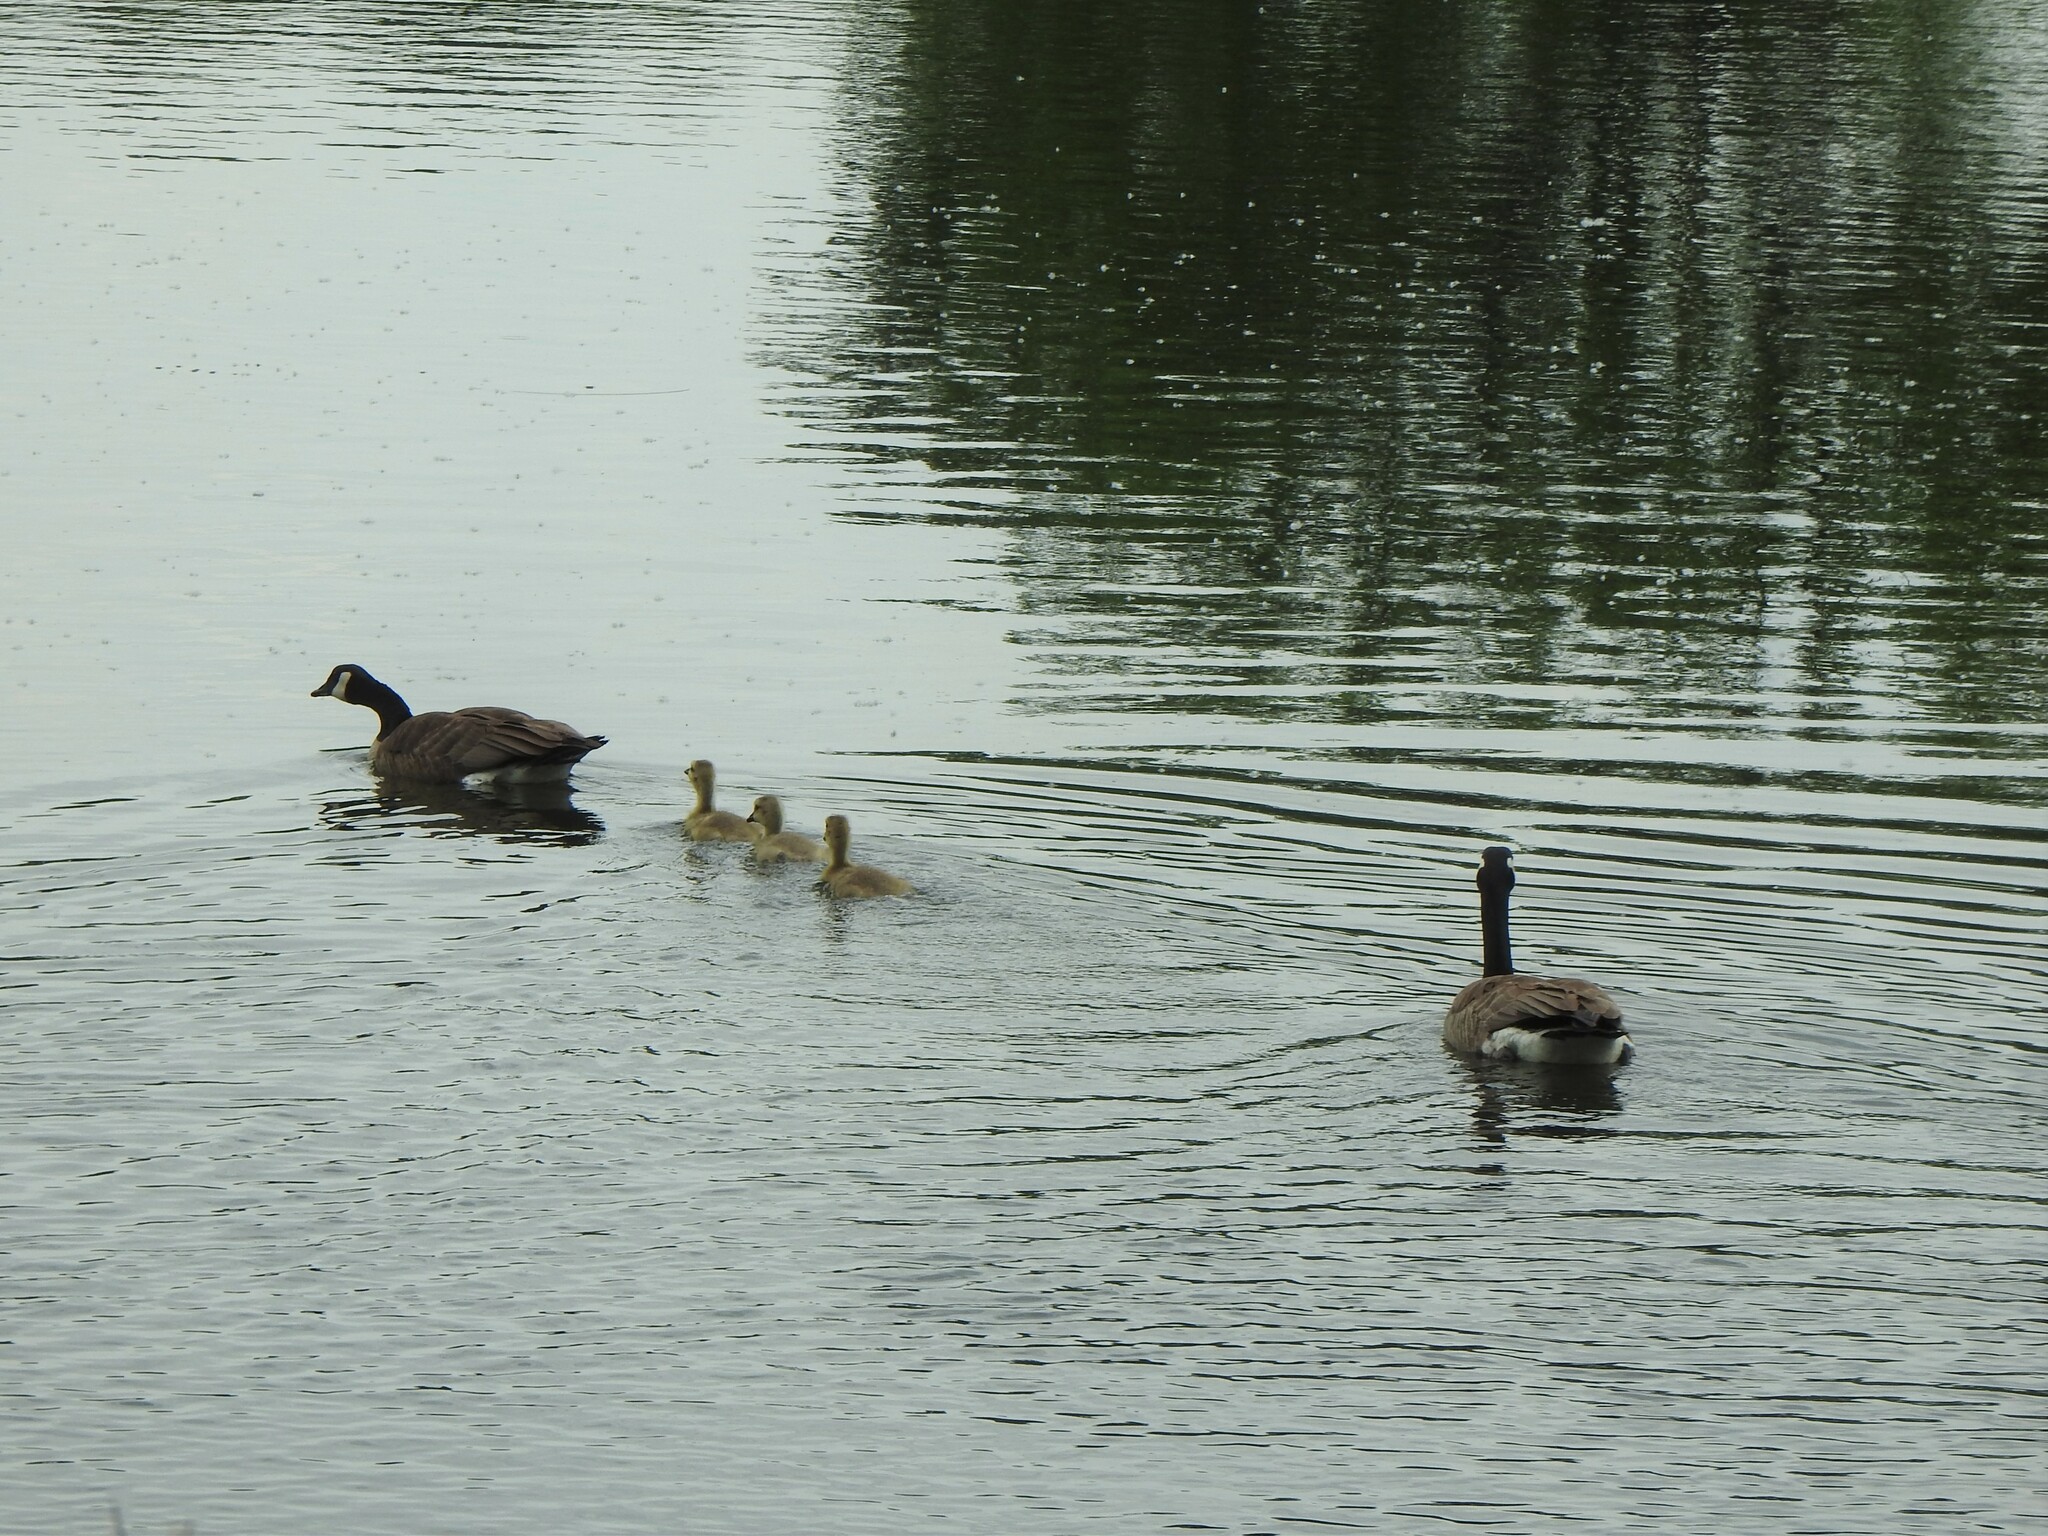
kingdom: Animalia
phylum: Chordata
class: Aves
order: Anseriformes
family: Anatidae
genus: Branta
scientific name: Branta canadensis
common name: Canada goose
